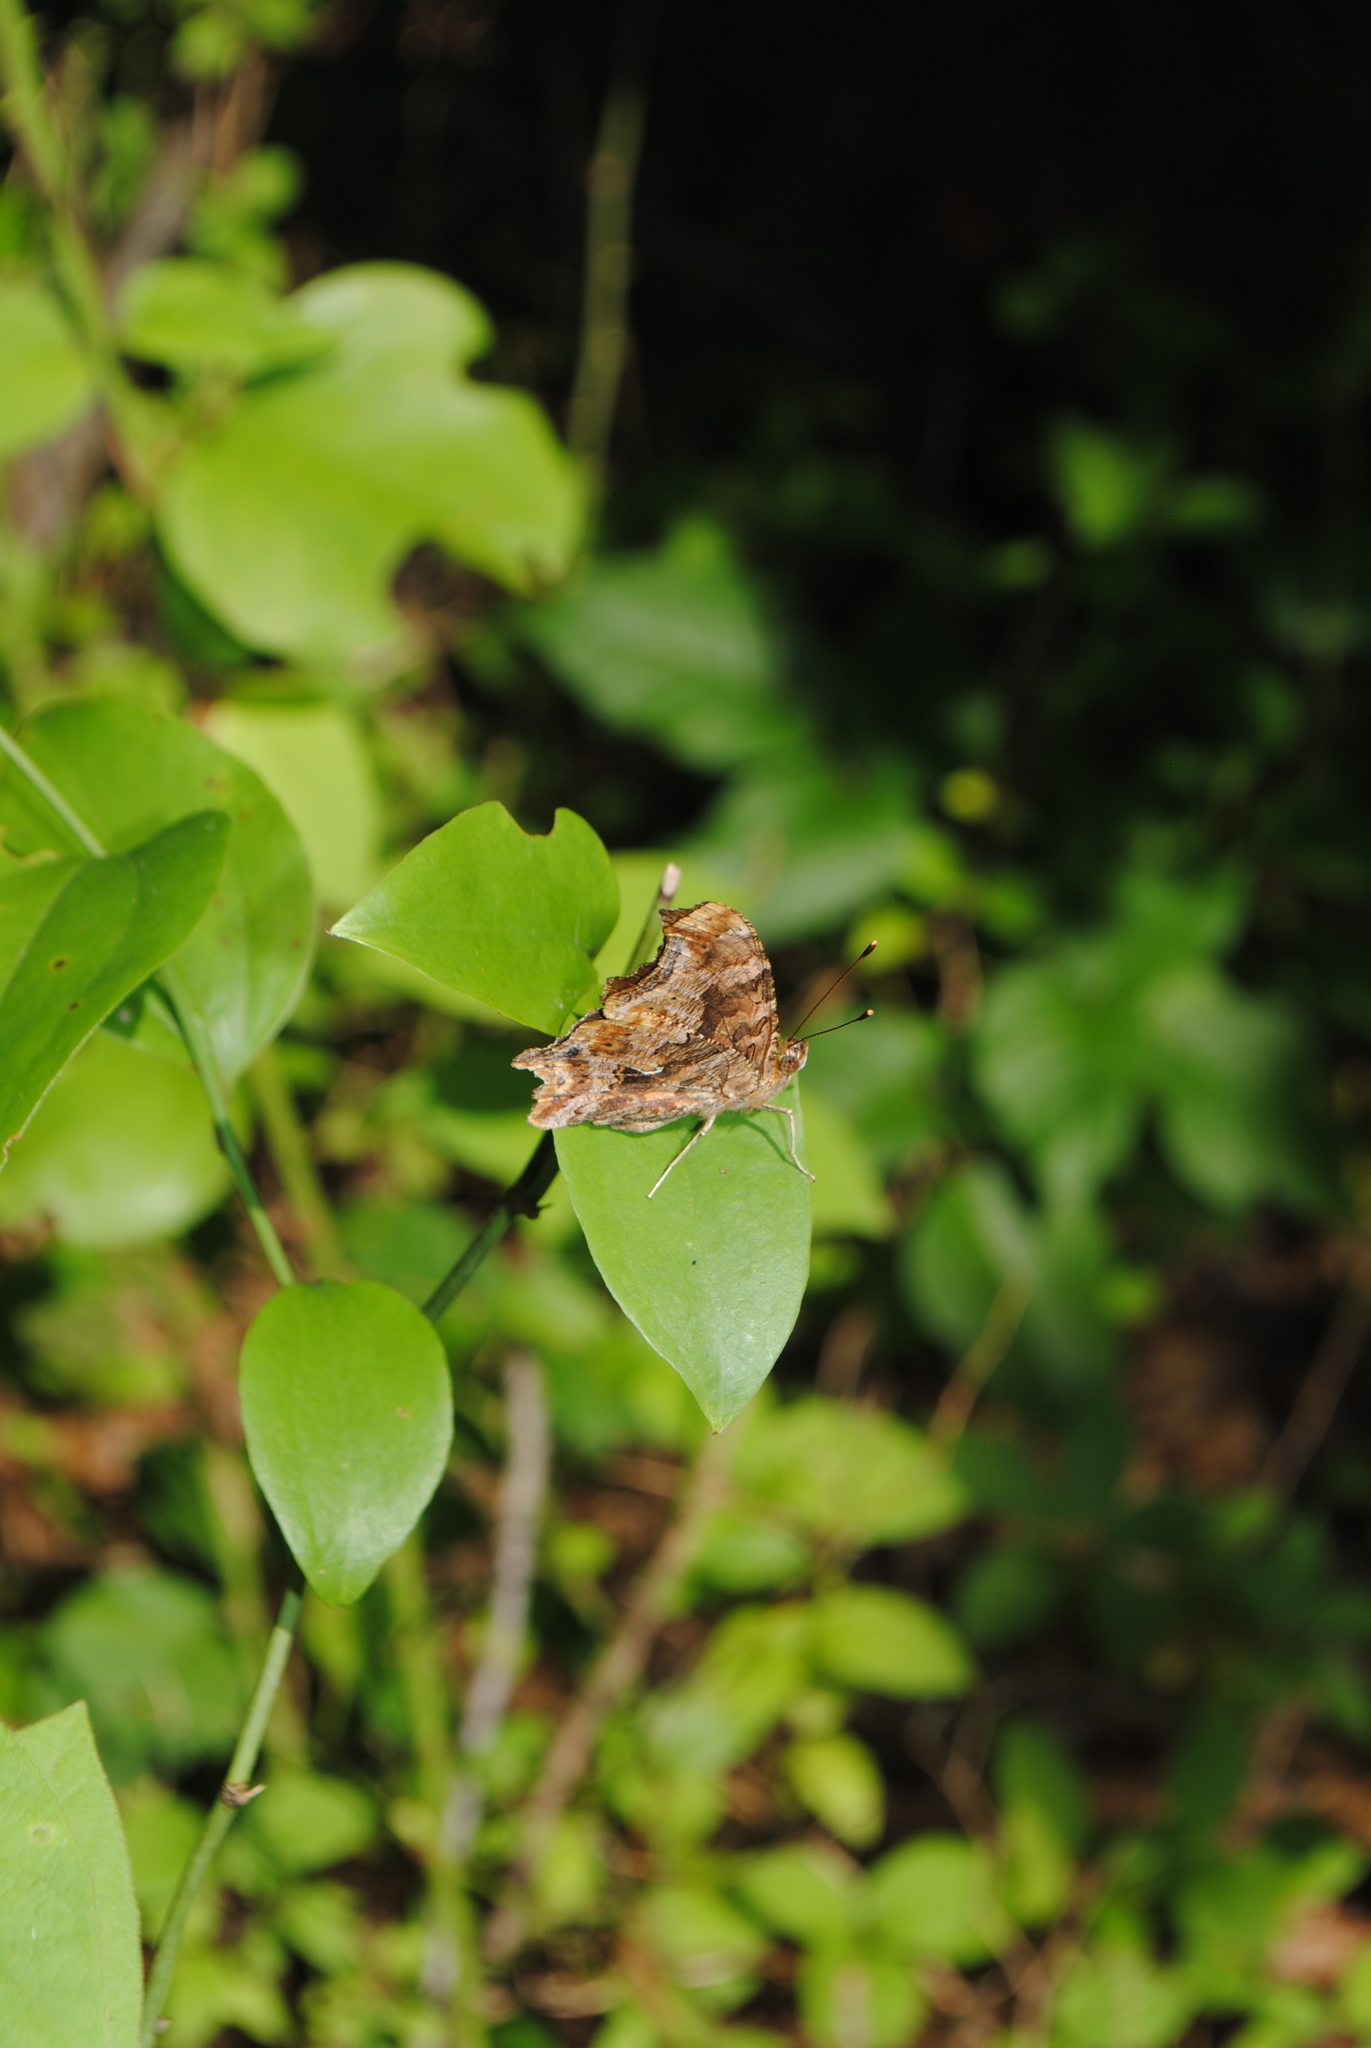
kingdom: Animalia
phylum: Arthropoda
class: Insecta
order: Lepidoptera
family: Nymphalidae
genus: Polygonia
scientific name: Polygonia comma
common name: Eastern comma
